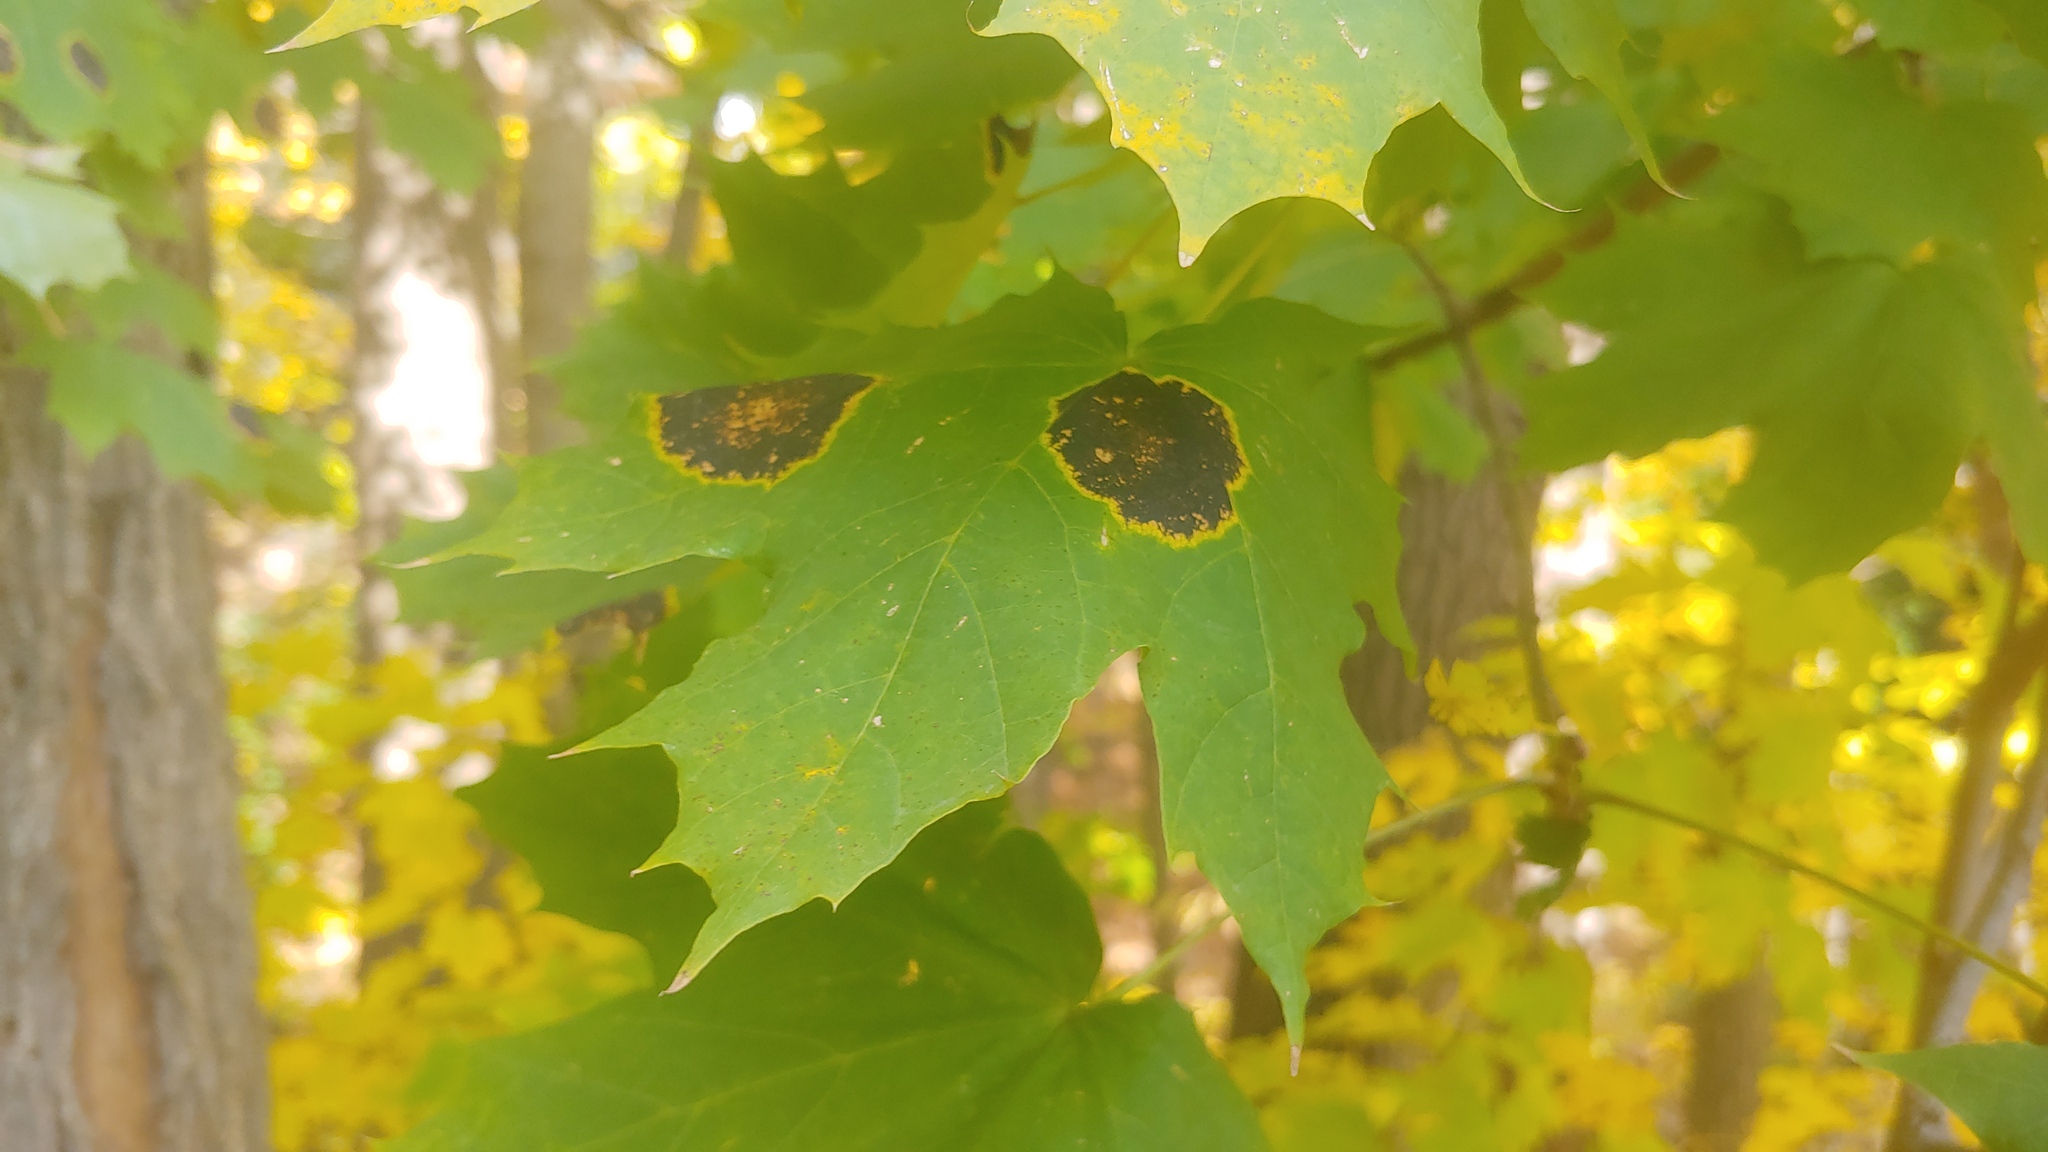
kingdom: Fungi
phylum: Ascomycota
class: Leotiomycetes
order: Rhytismatales
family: Rhytismataceae
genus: Rhytisma
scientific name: Rhytisma acerinum
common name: European tar spot
